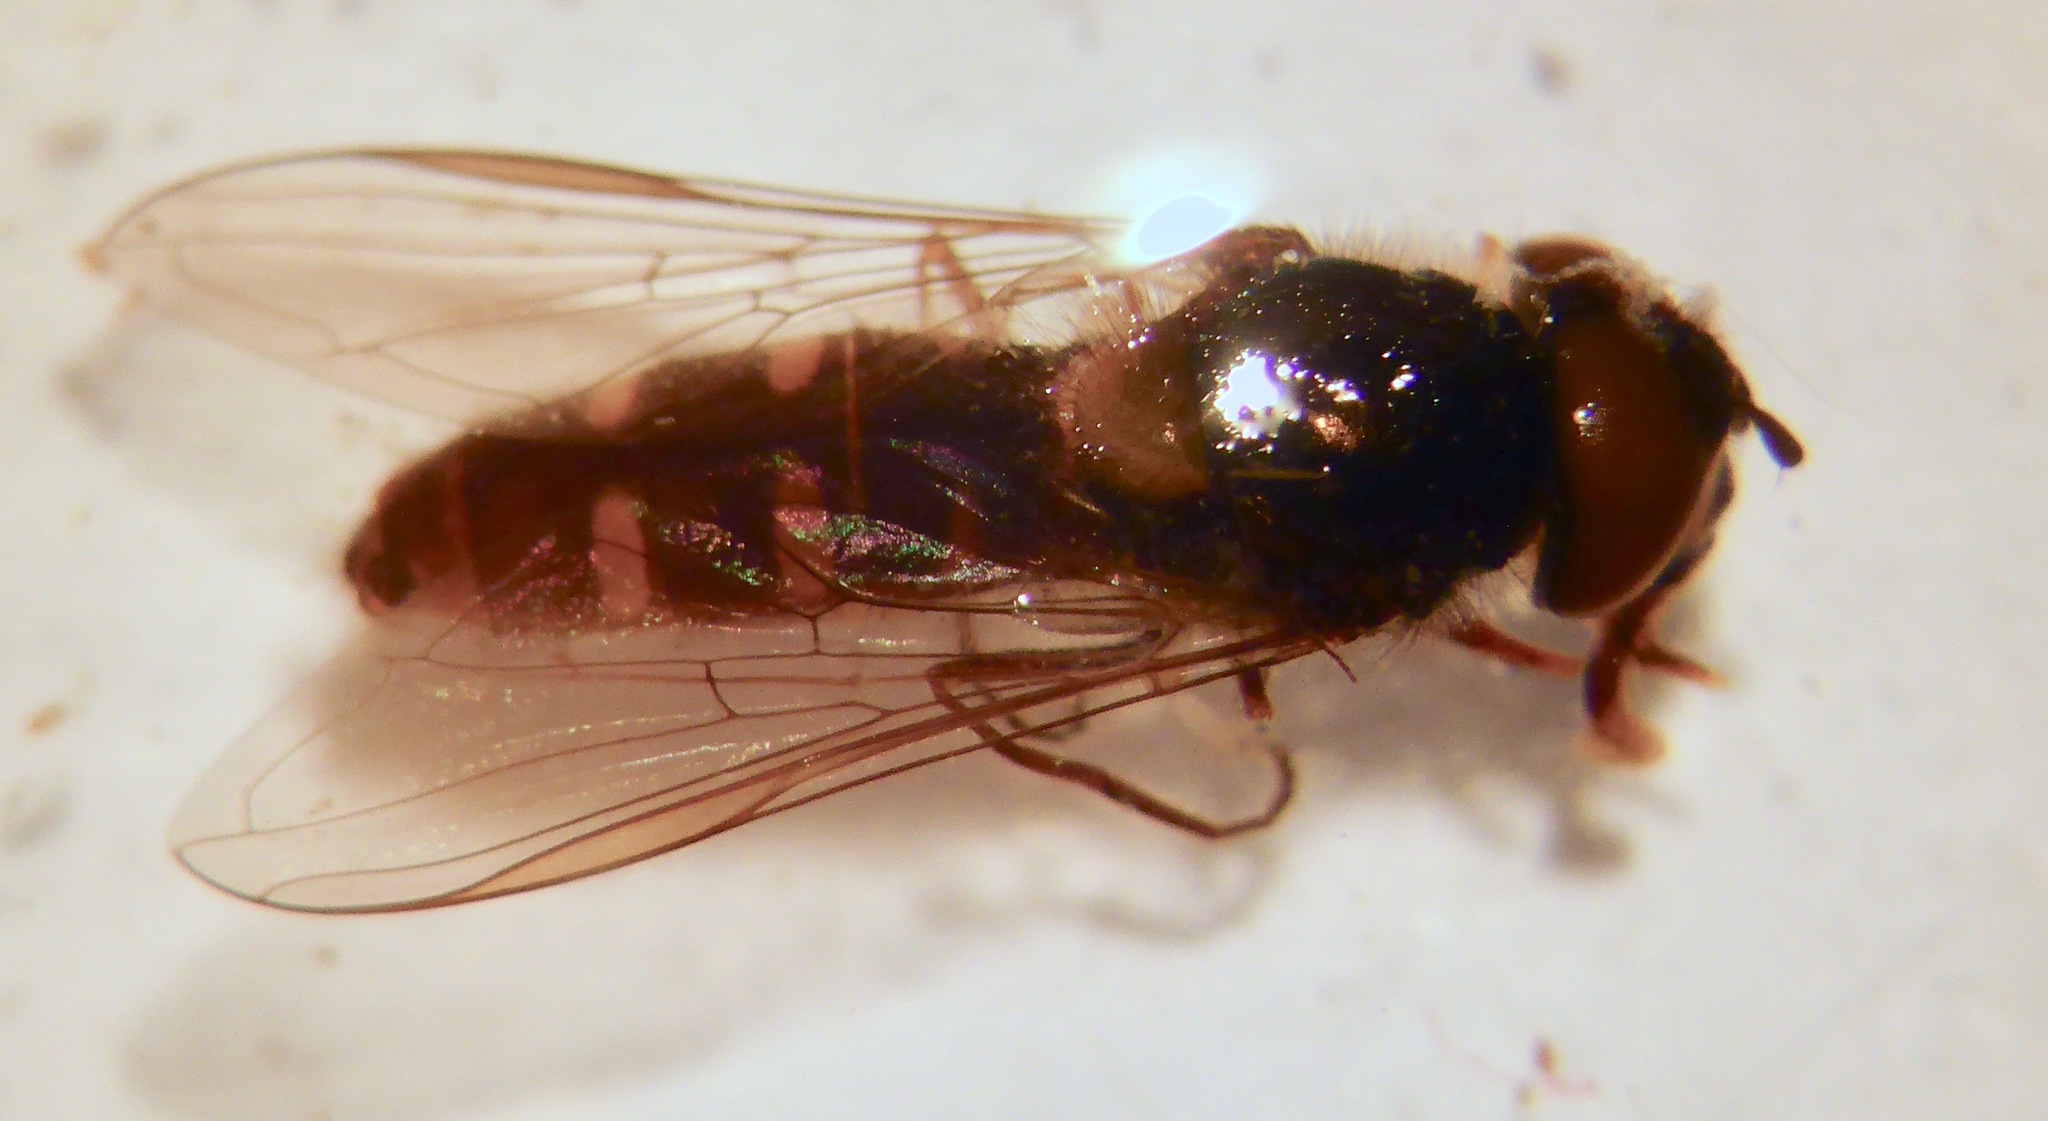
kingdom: Animalia
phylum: Arthropoda
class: Insecta
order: Diptera
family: Syrphidae
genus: Melangyna
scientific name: Melangyna novaezelandiae
